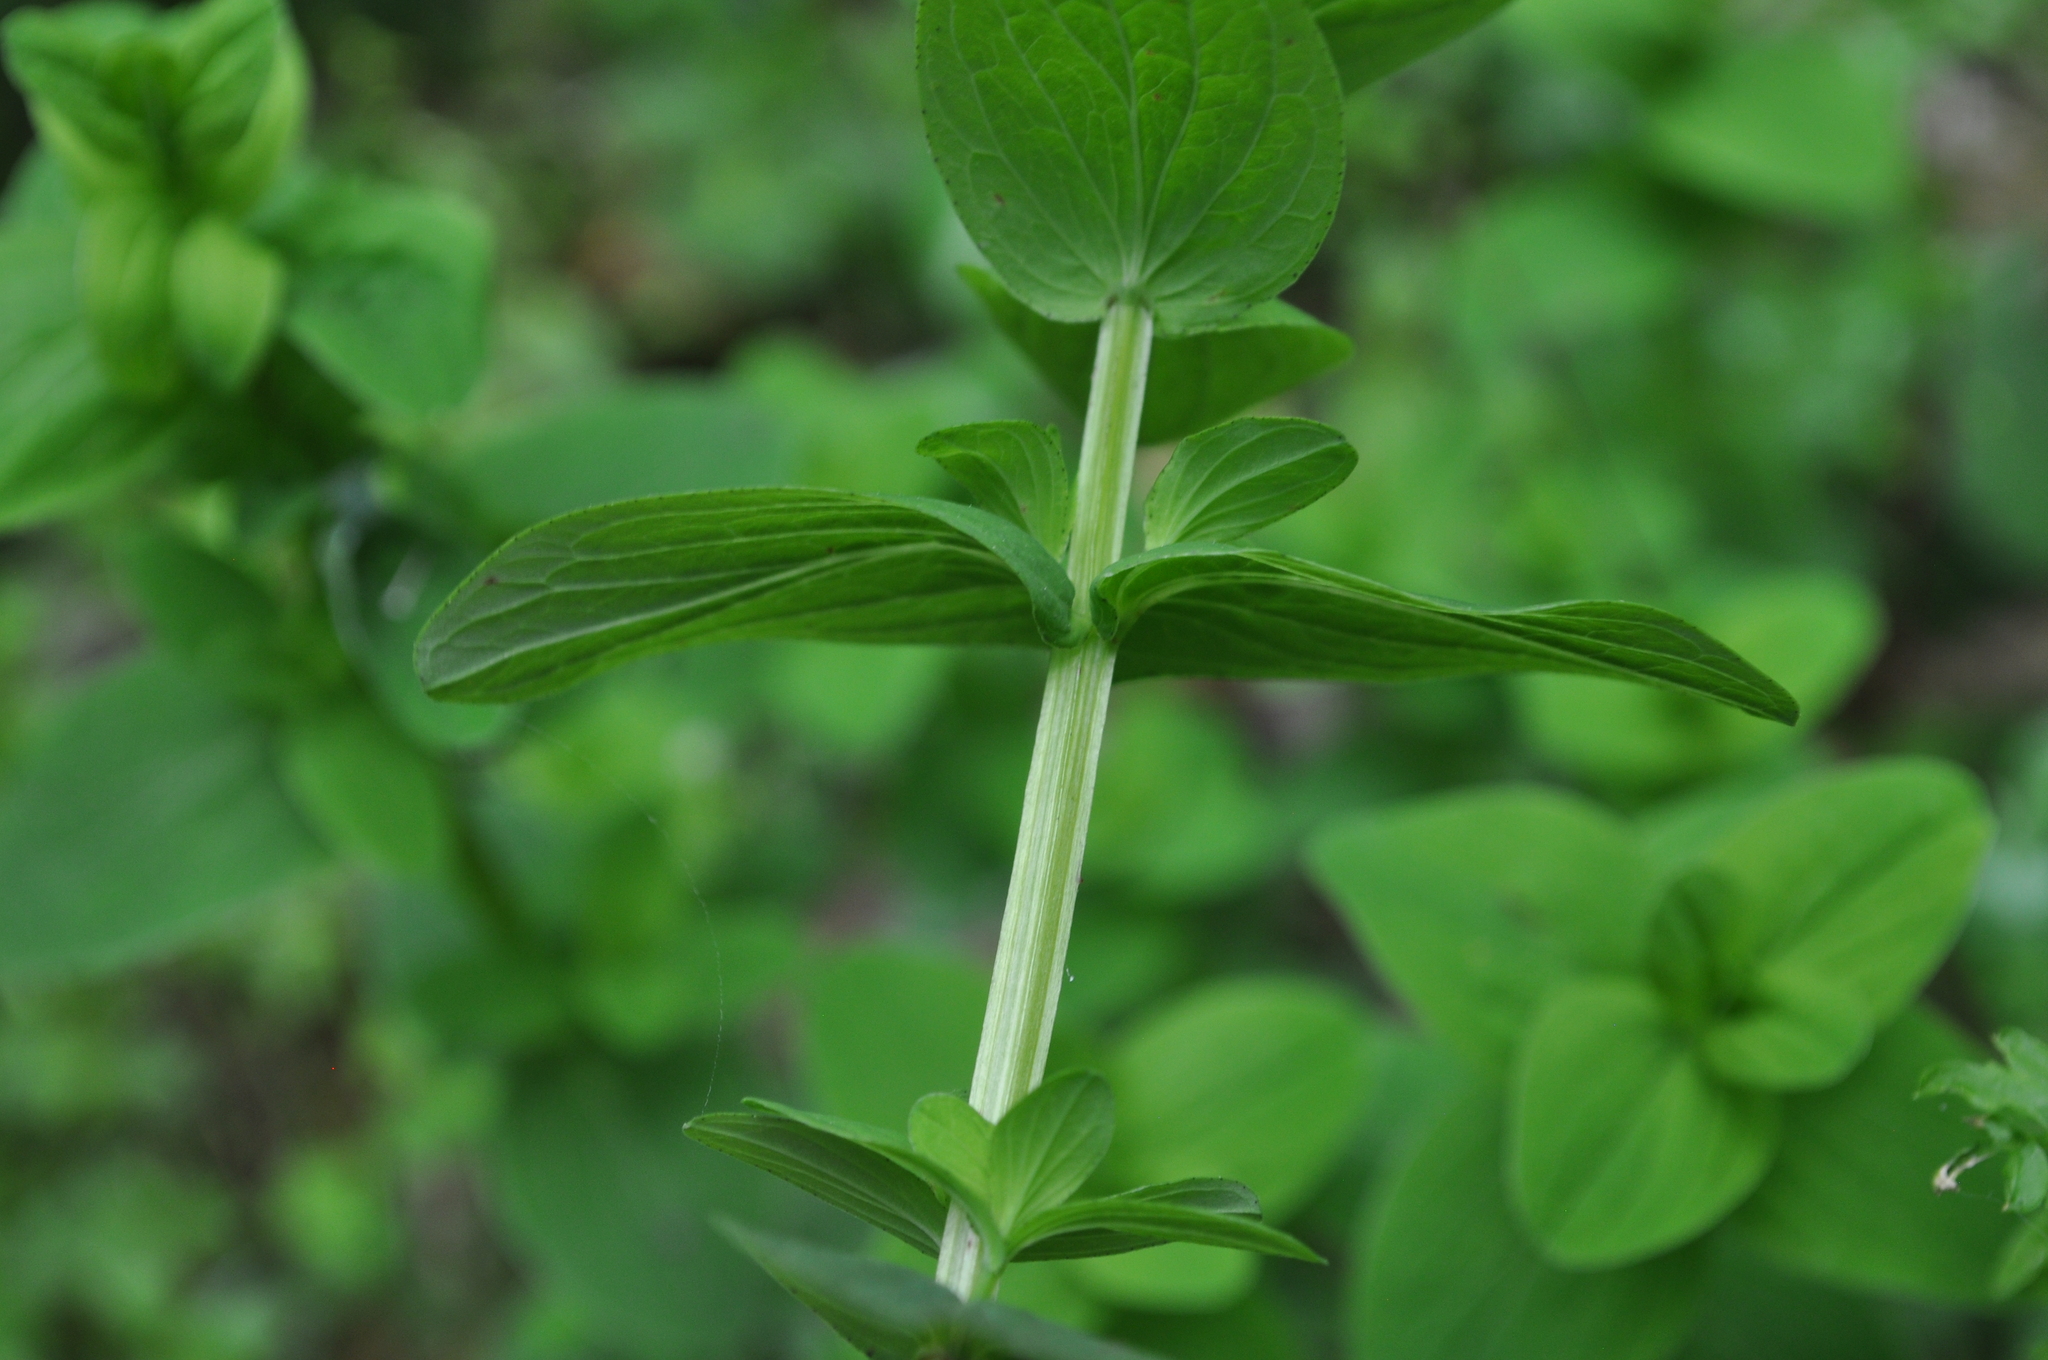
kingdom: Plantae
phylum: Tracheophyta
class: Magnoliopsida
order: Malpighiales
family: Hypericaceae
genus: Hypericum
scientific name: Hypericum tetrapterum
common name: Square-stalked st. john's-wort
